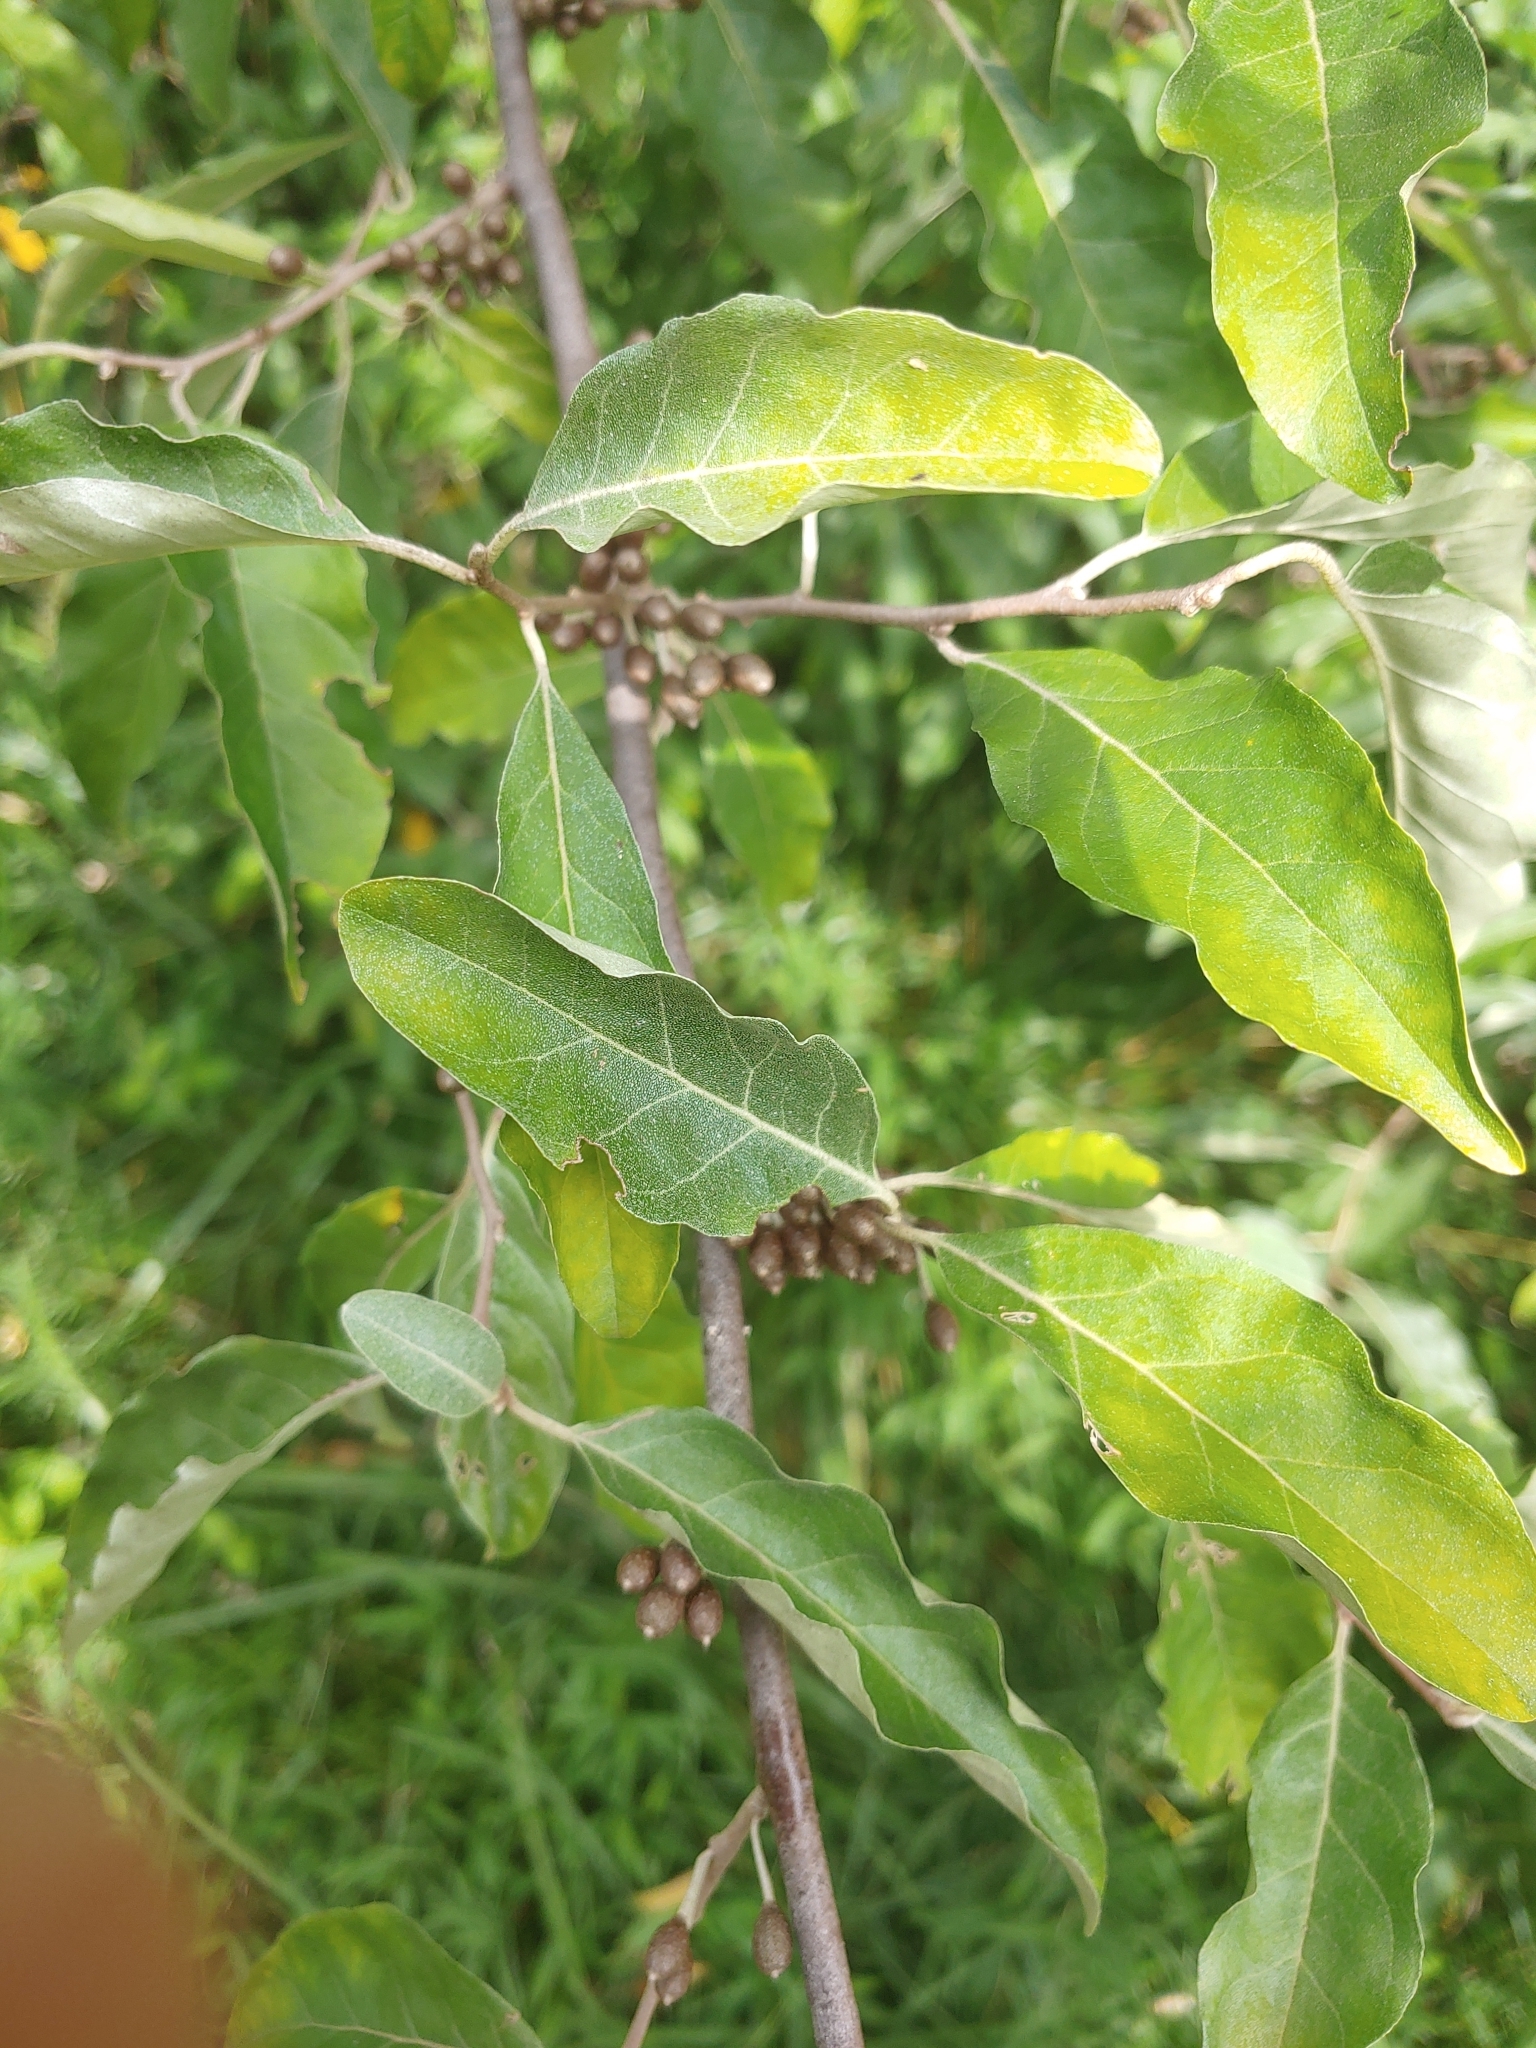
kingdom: Plantae
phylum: Tracheophyta
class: Magnoliopsida
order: Rosales
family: Elaeagnaceae
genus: Elaeagnus
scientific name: Elaeagnus umbellata
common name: Autumn olive
